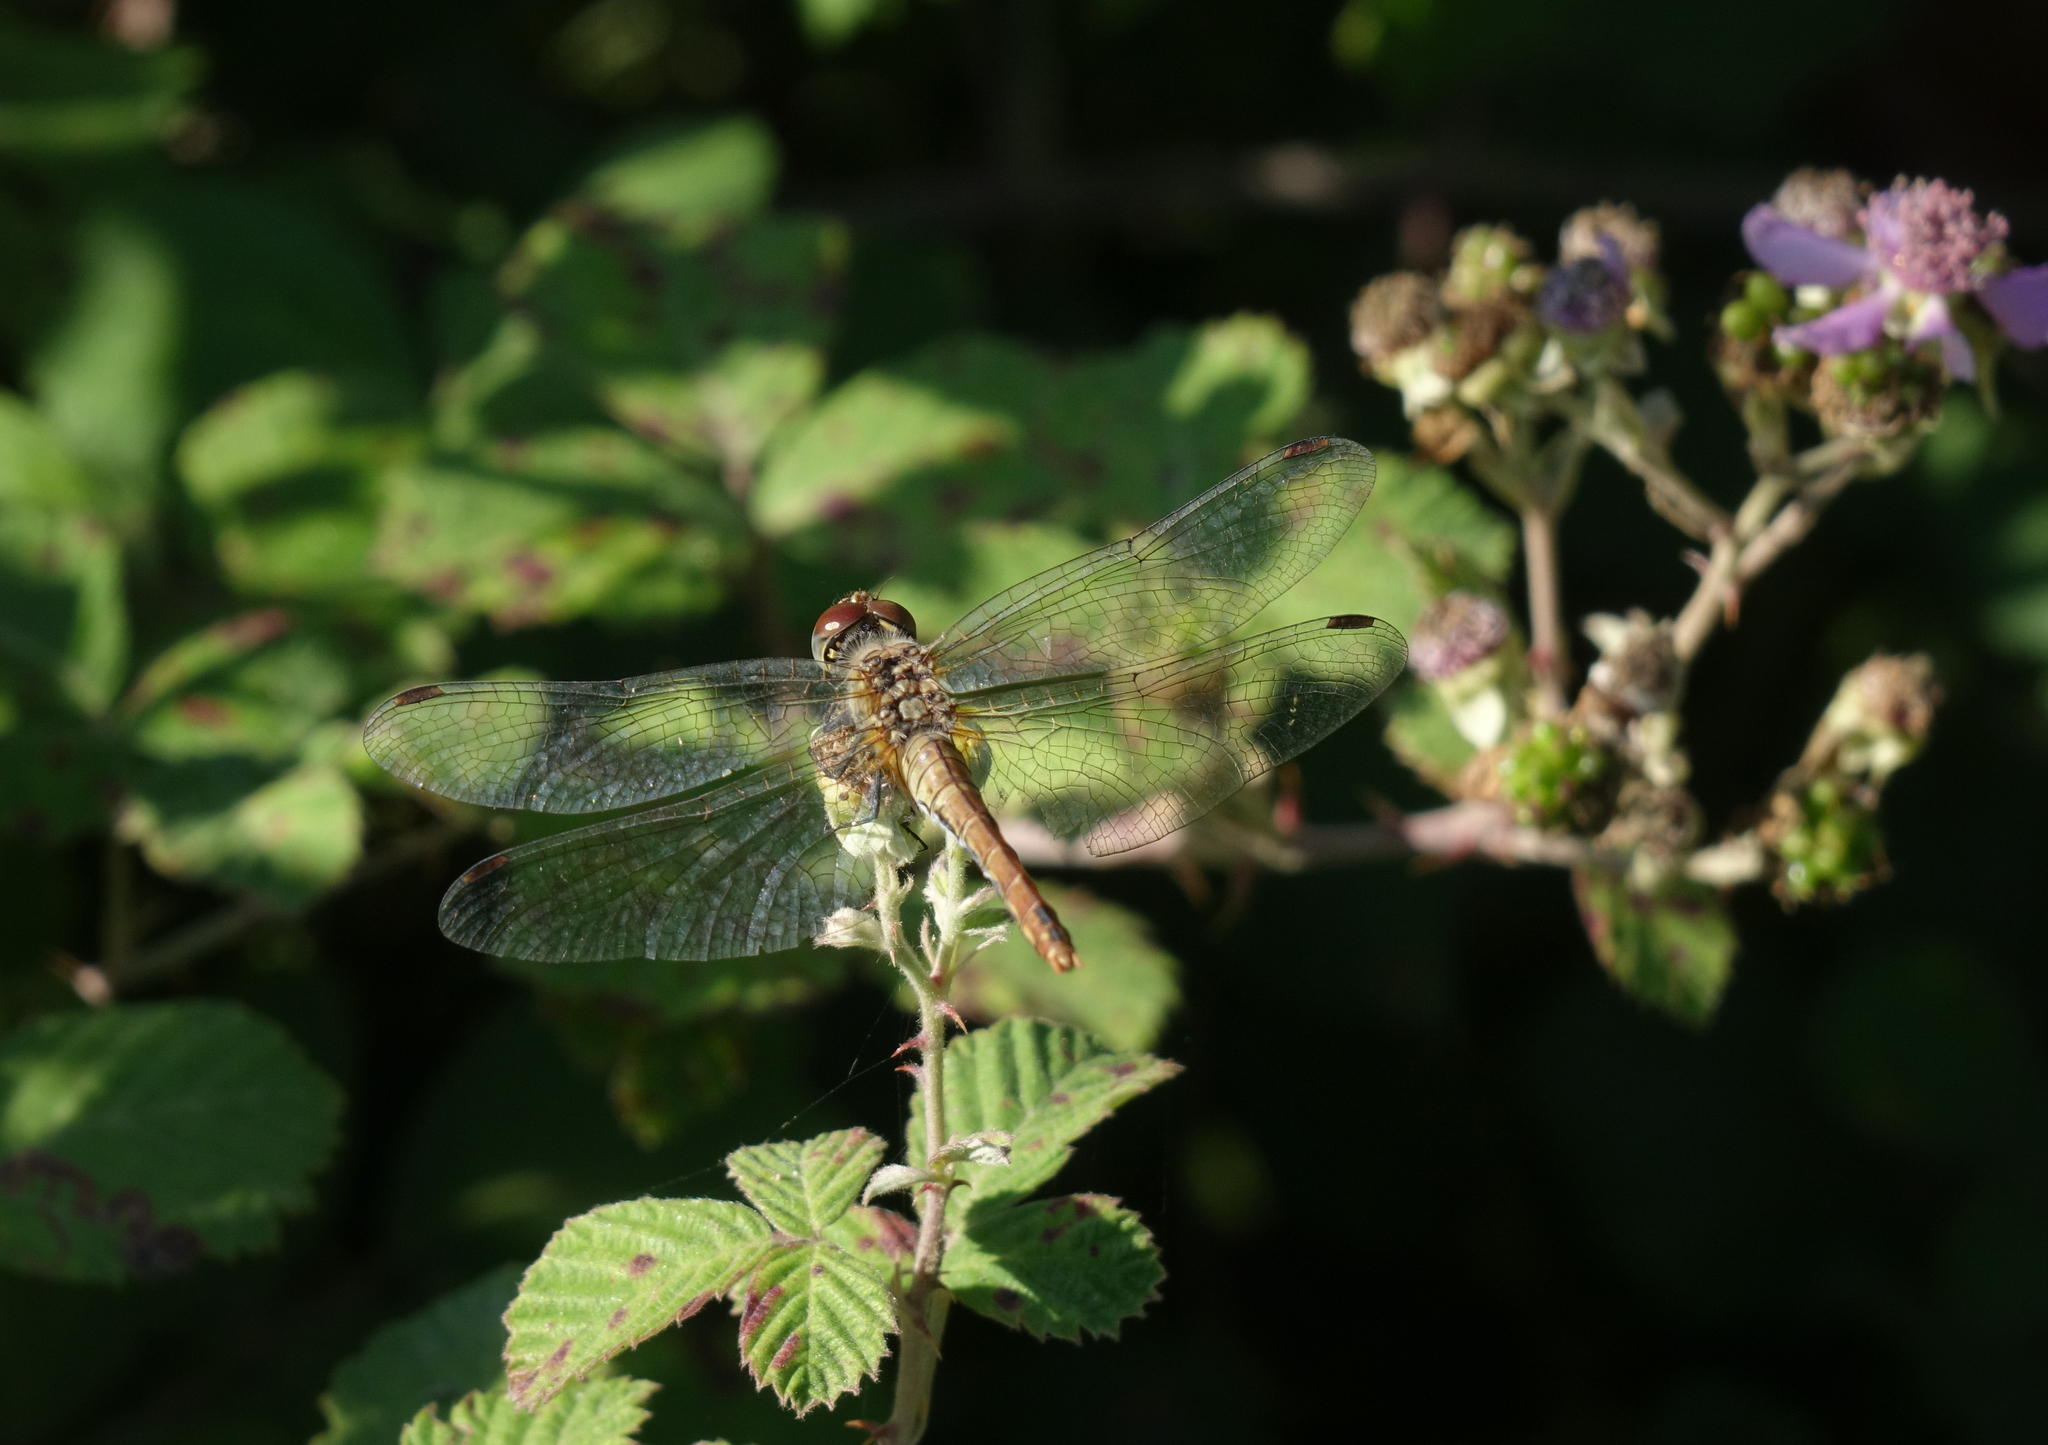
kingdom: Animalia
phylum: Arthropoda
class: Insecta
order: Odonata
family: Libellulidae
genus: Sympetrum
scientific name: Sympetrum sanguineum
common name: Ruddy darter
